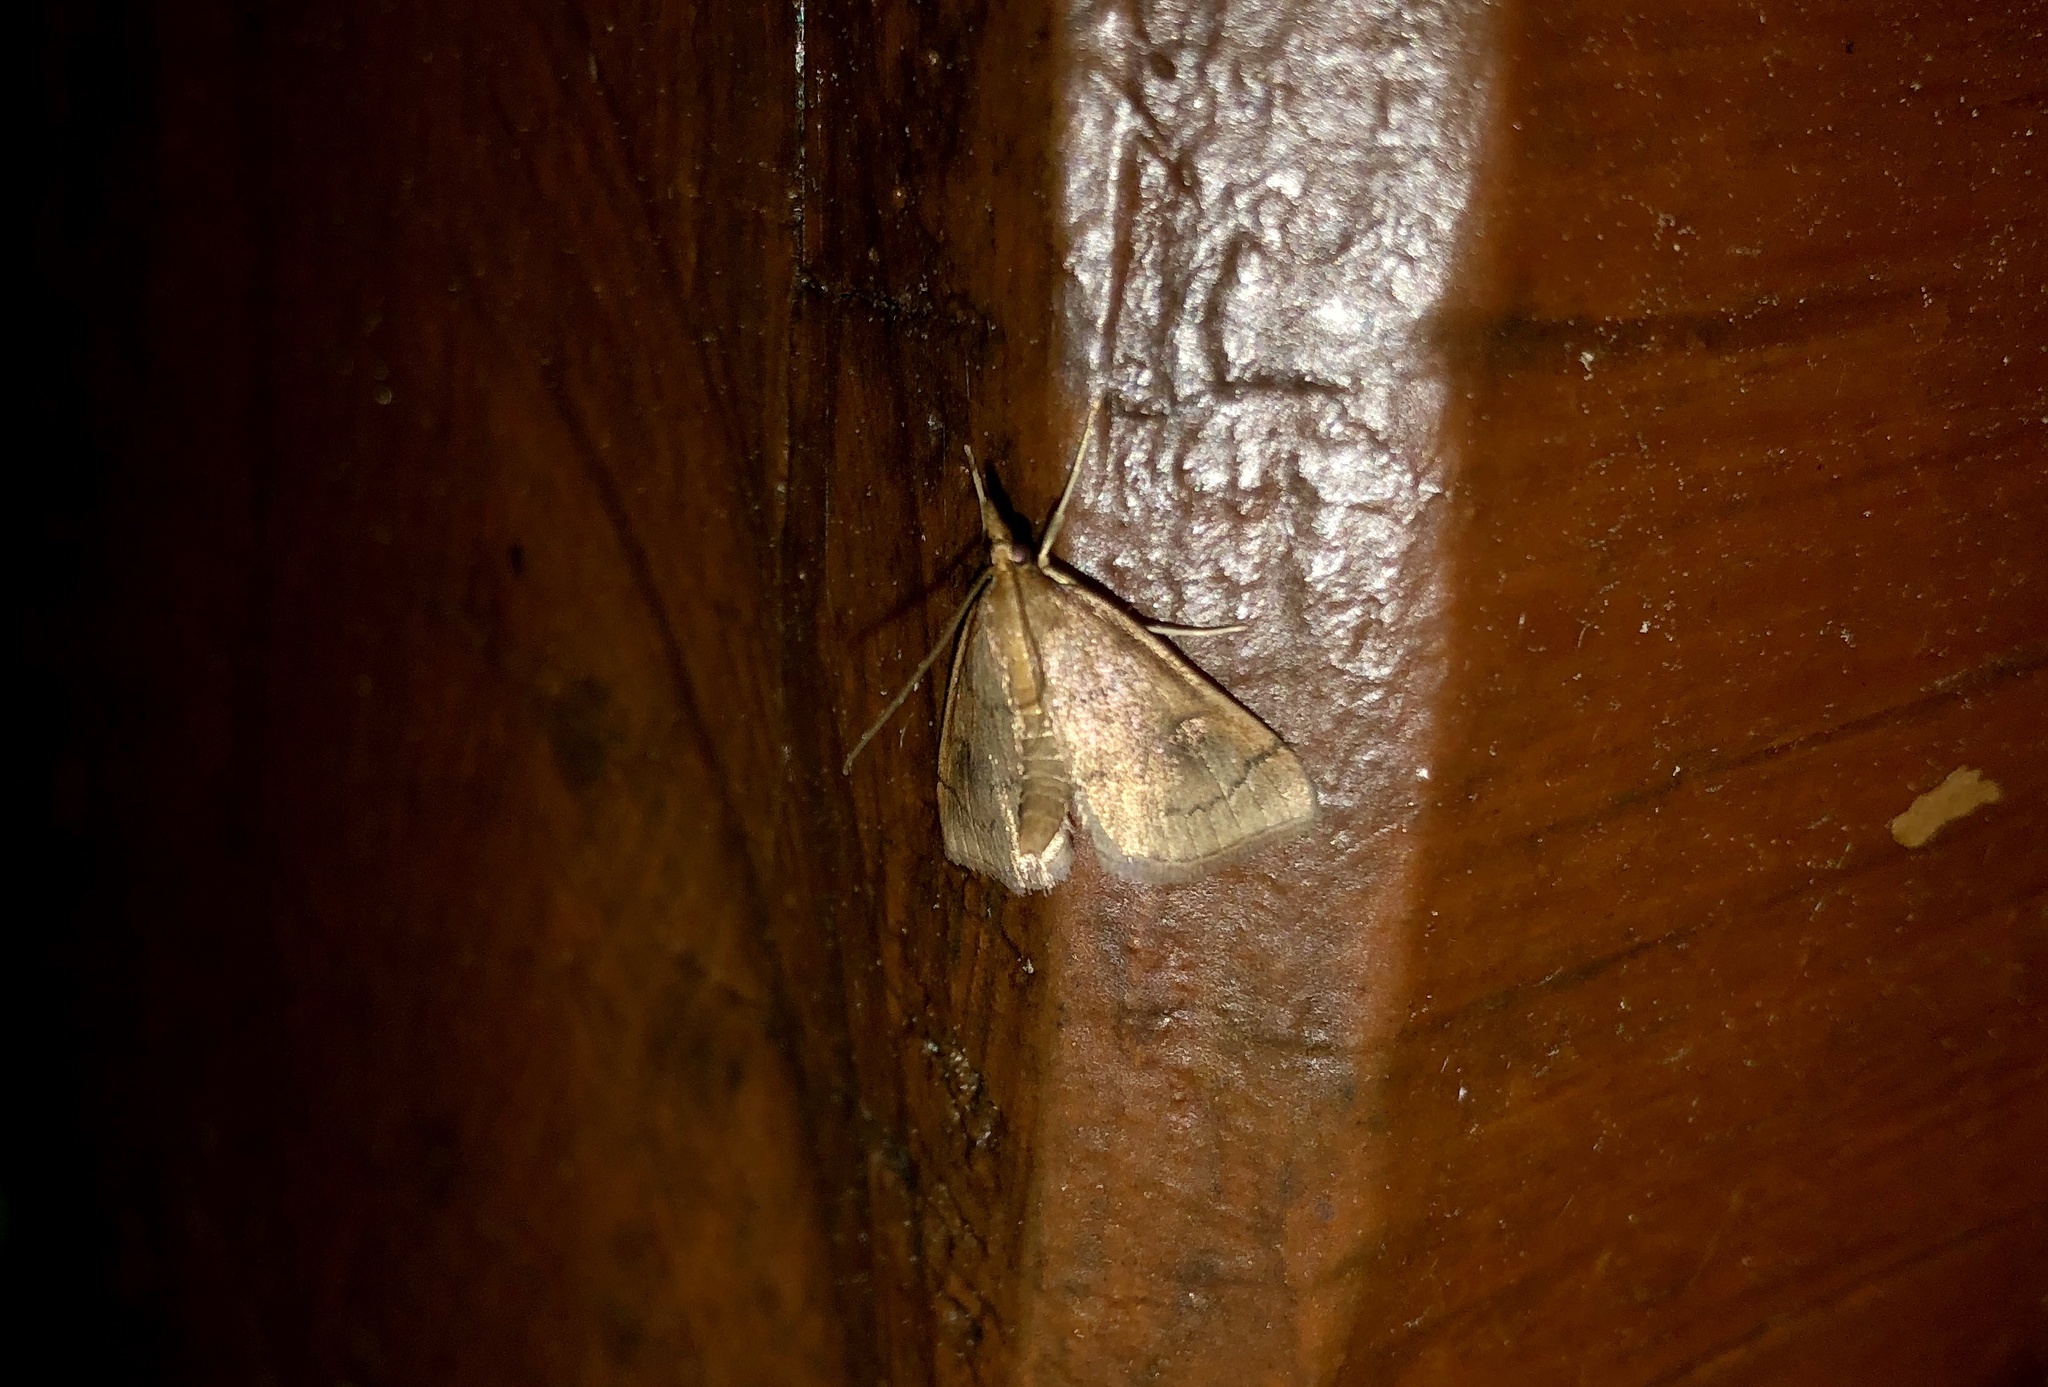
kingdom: Animalia
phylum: Arthropoda
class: Insecta
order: Lepidoptera
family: Crambidae
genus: Fumibotys
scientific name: Fumibotys fumalis
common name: Mint root borer moth
